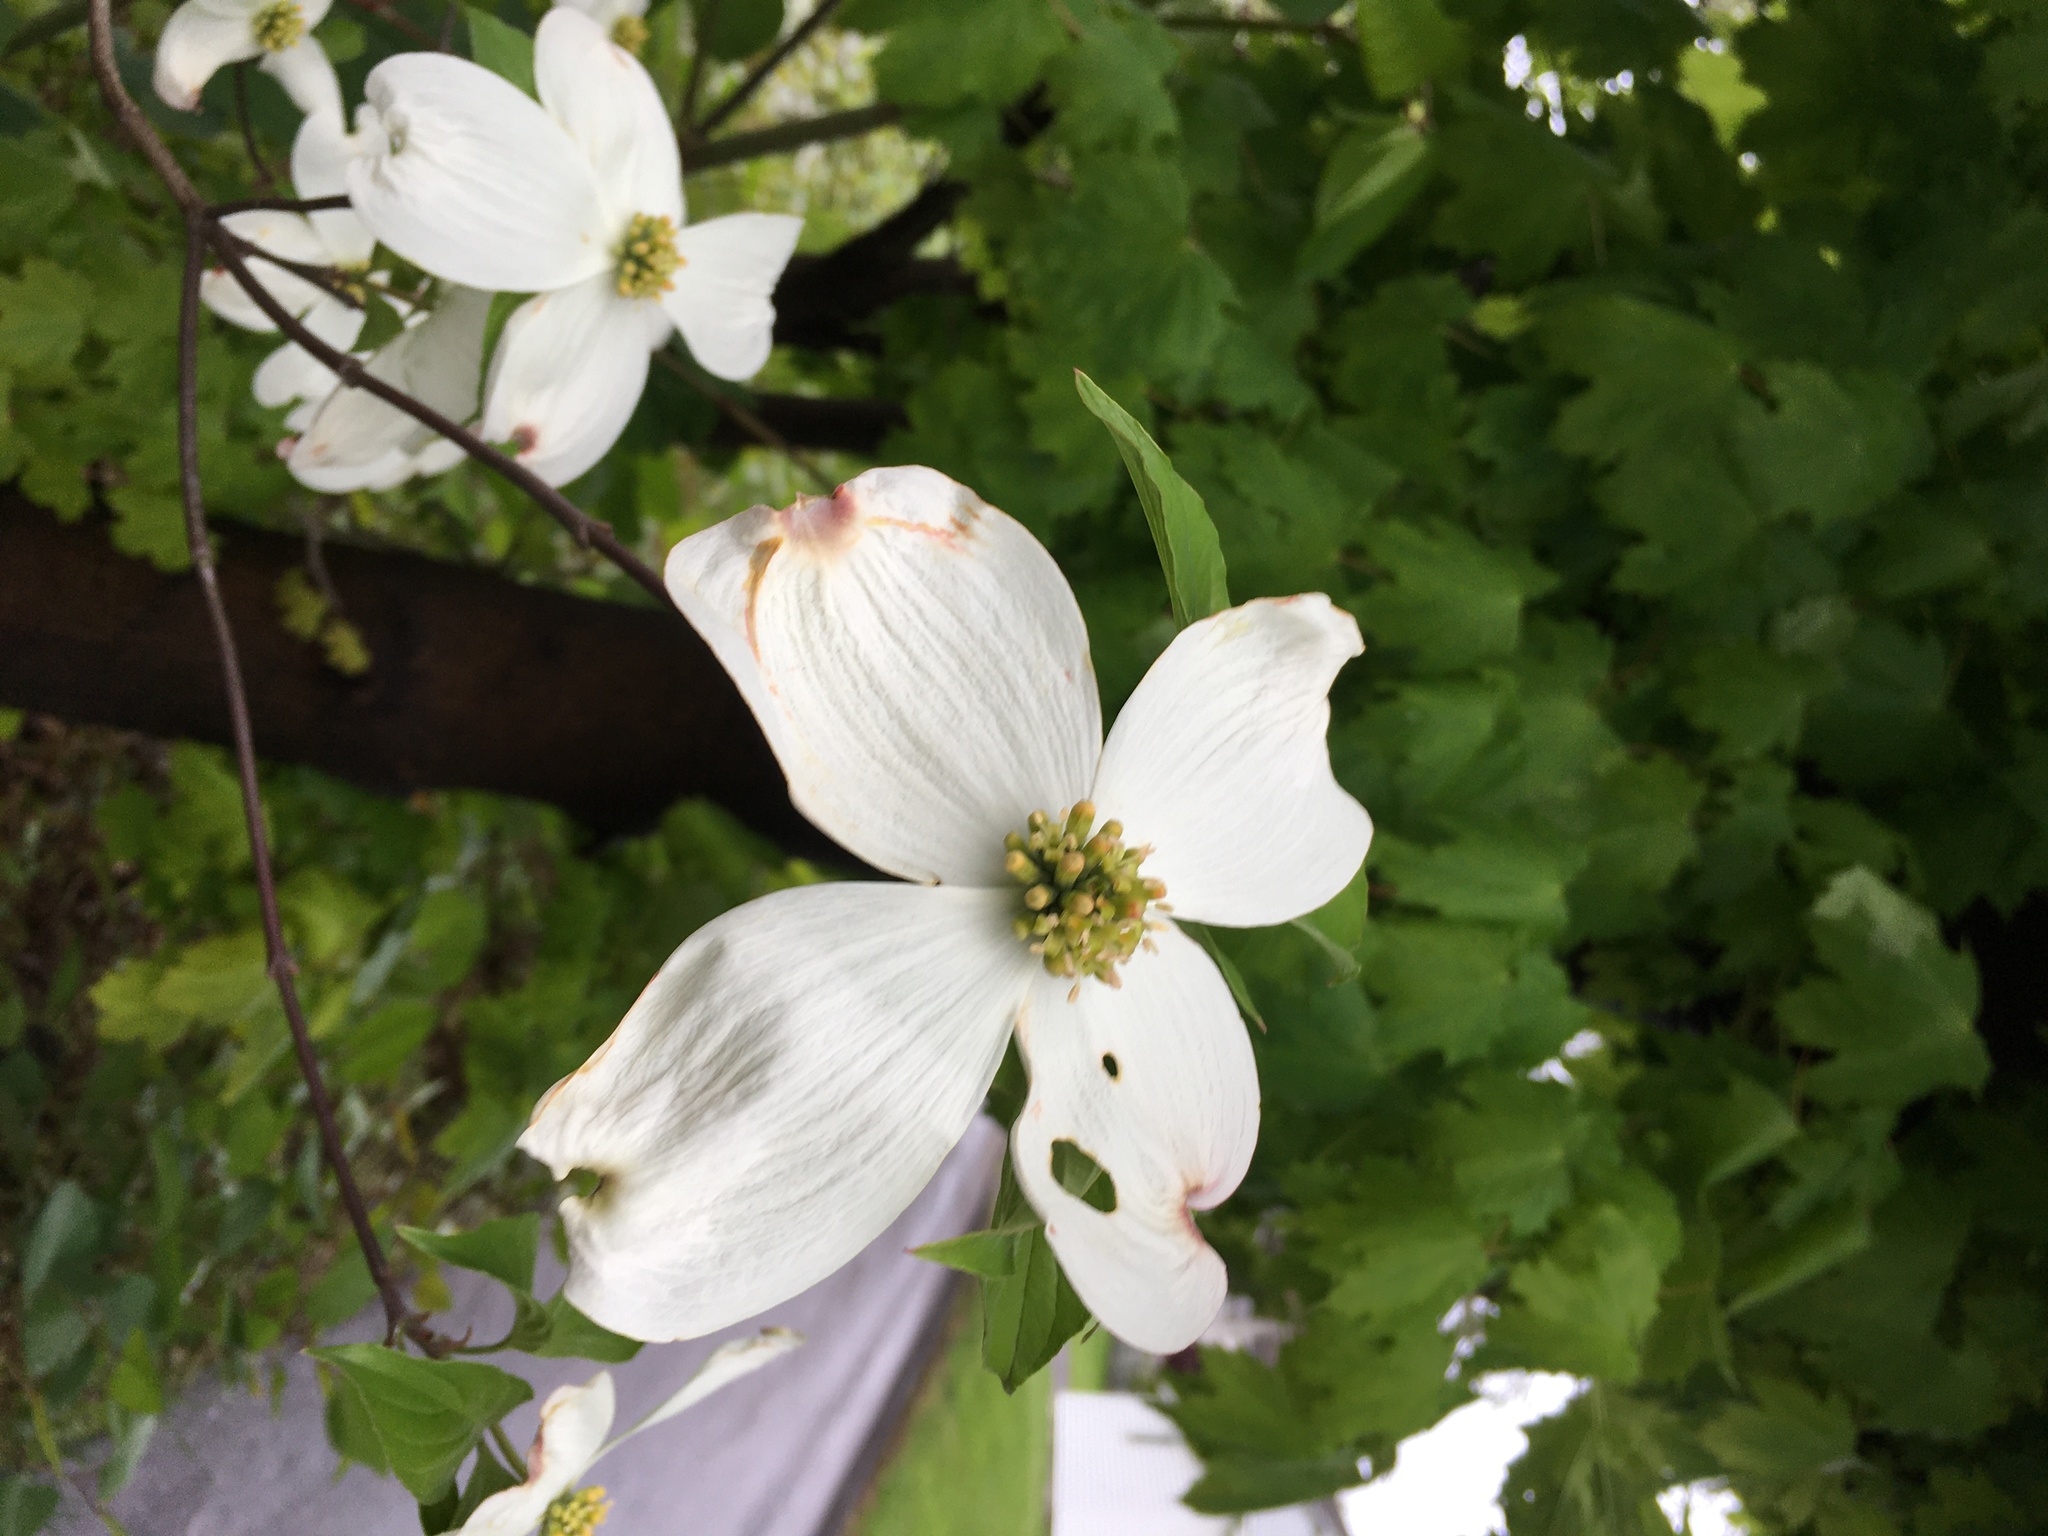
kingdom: Plantae
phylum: Tracheophyta
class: Magnoliopsida
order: Cornales
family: Cornaceae
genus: Cornus
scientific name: Cornus florida
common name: Flowering dogwood
